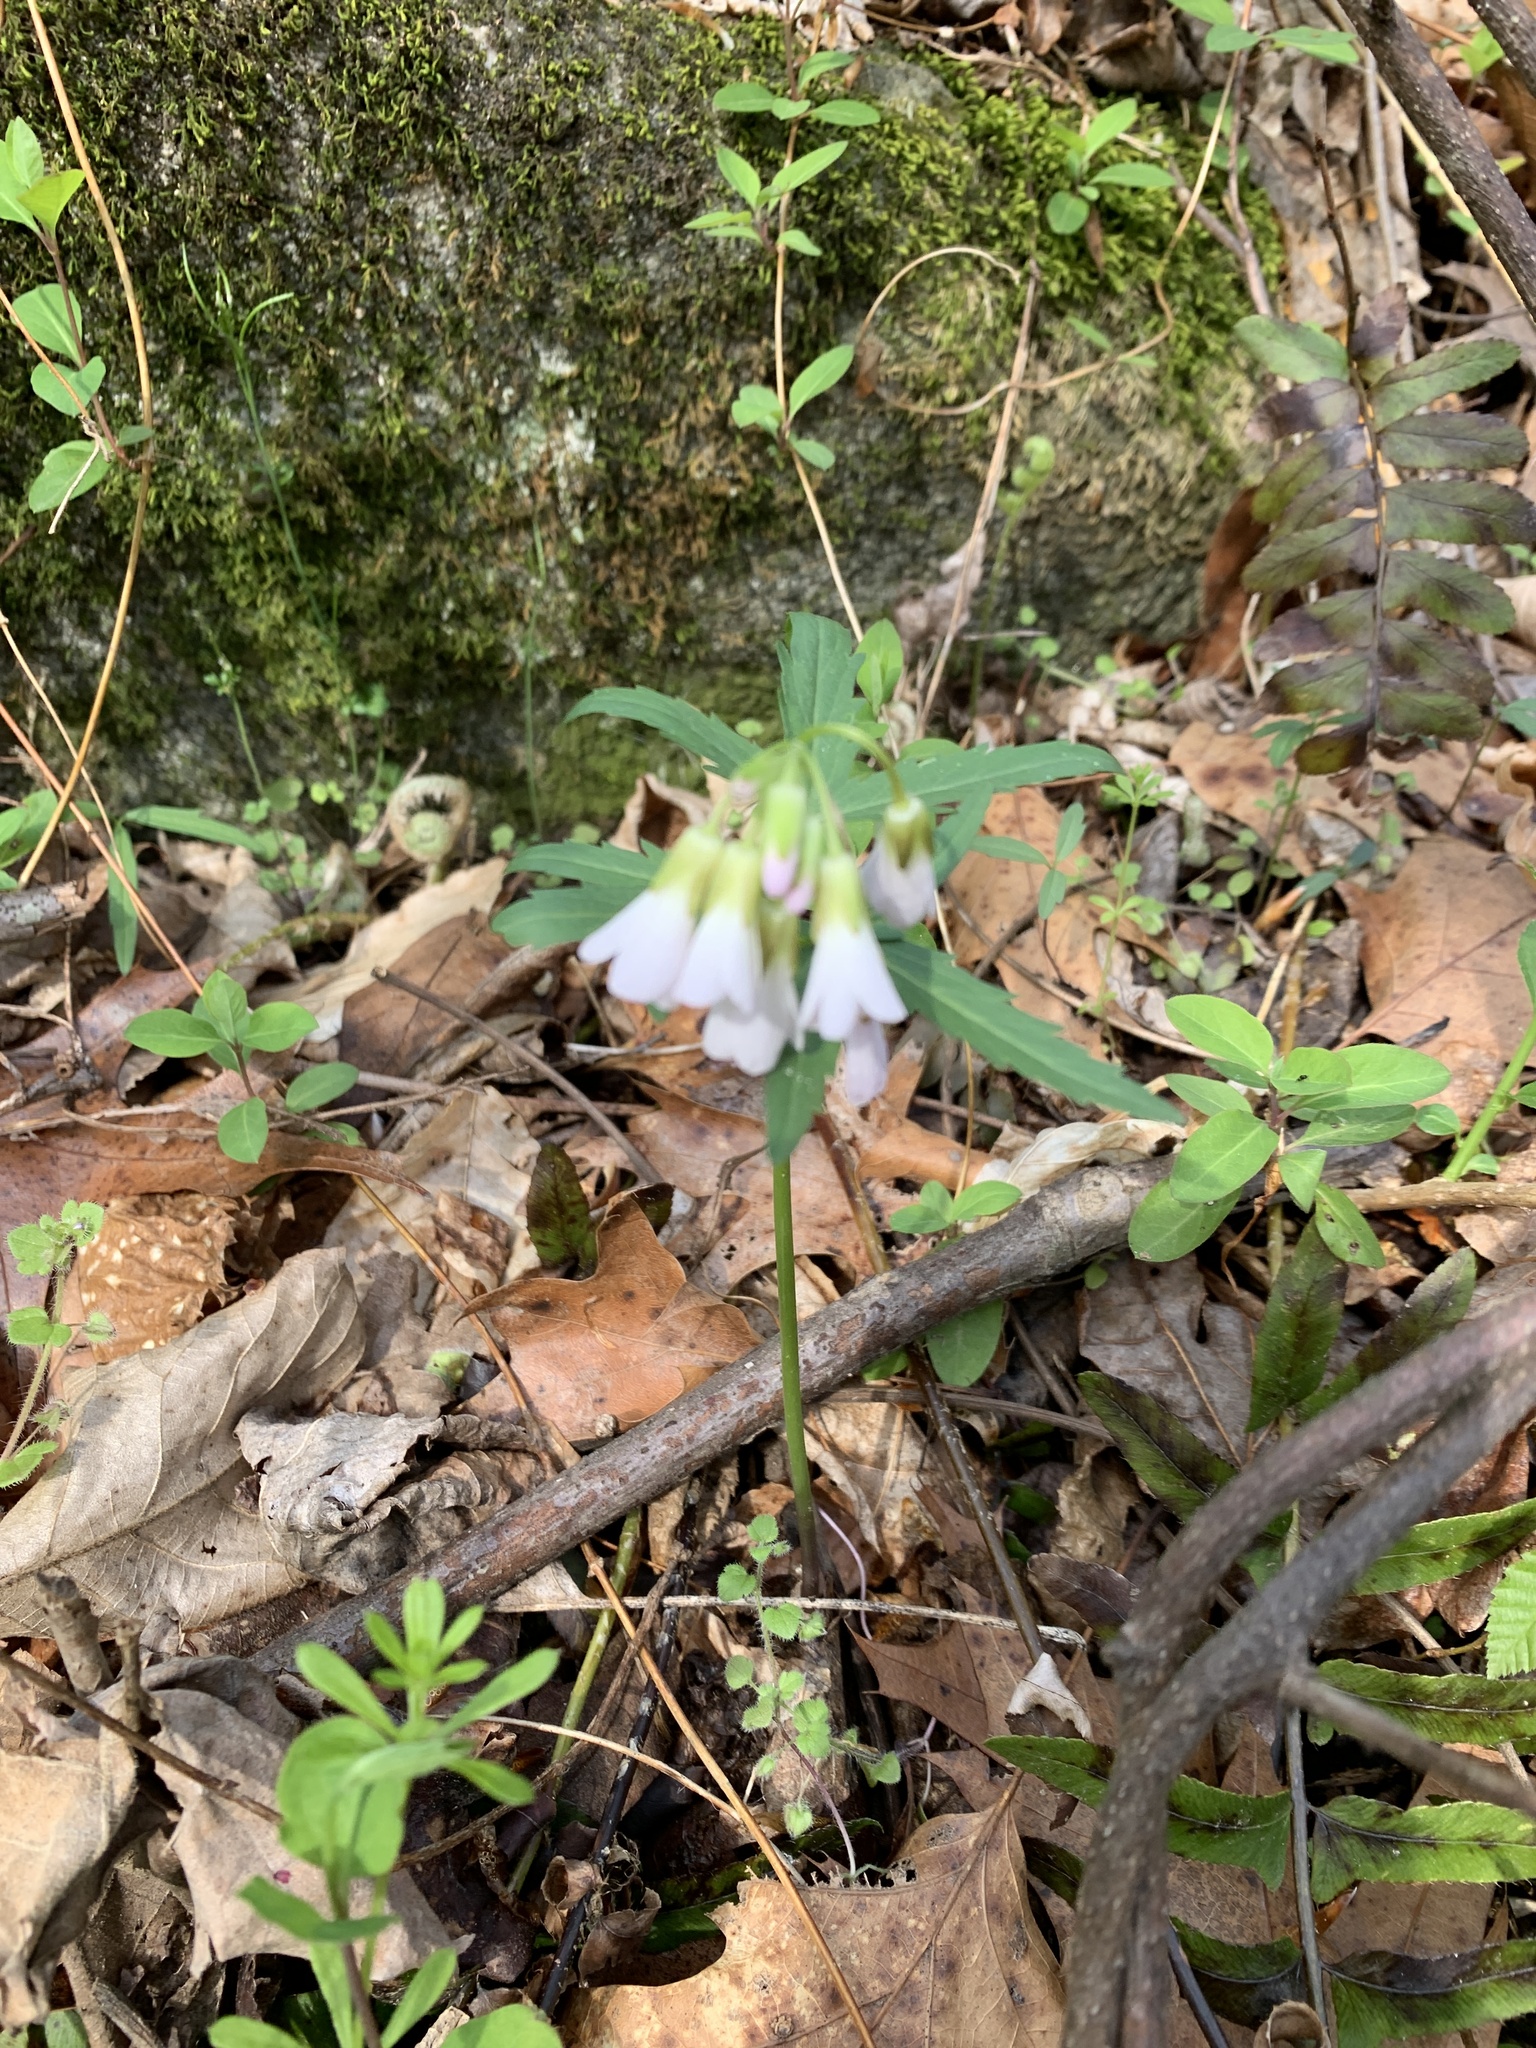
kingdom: Plantae
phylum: Tracheophyta
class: Magnoliopsida
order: Brassicales
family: Brassicaceae
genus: Cardamine
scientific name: Cardamine concatenata
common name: Cut-leaf toothcup
